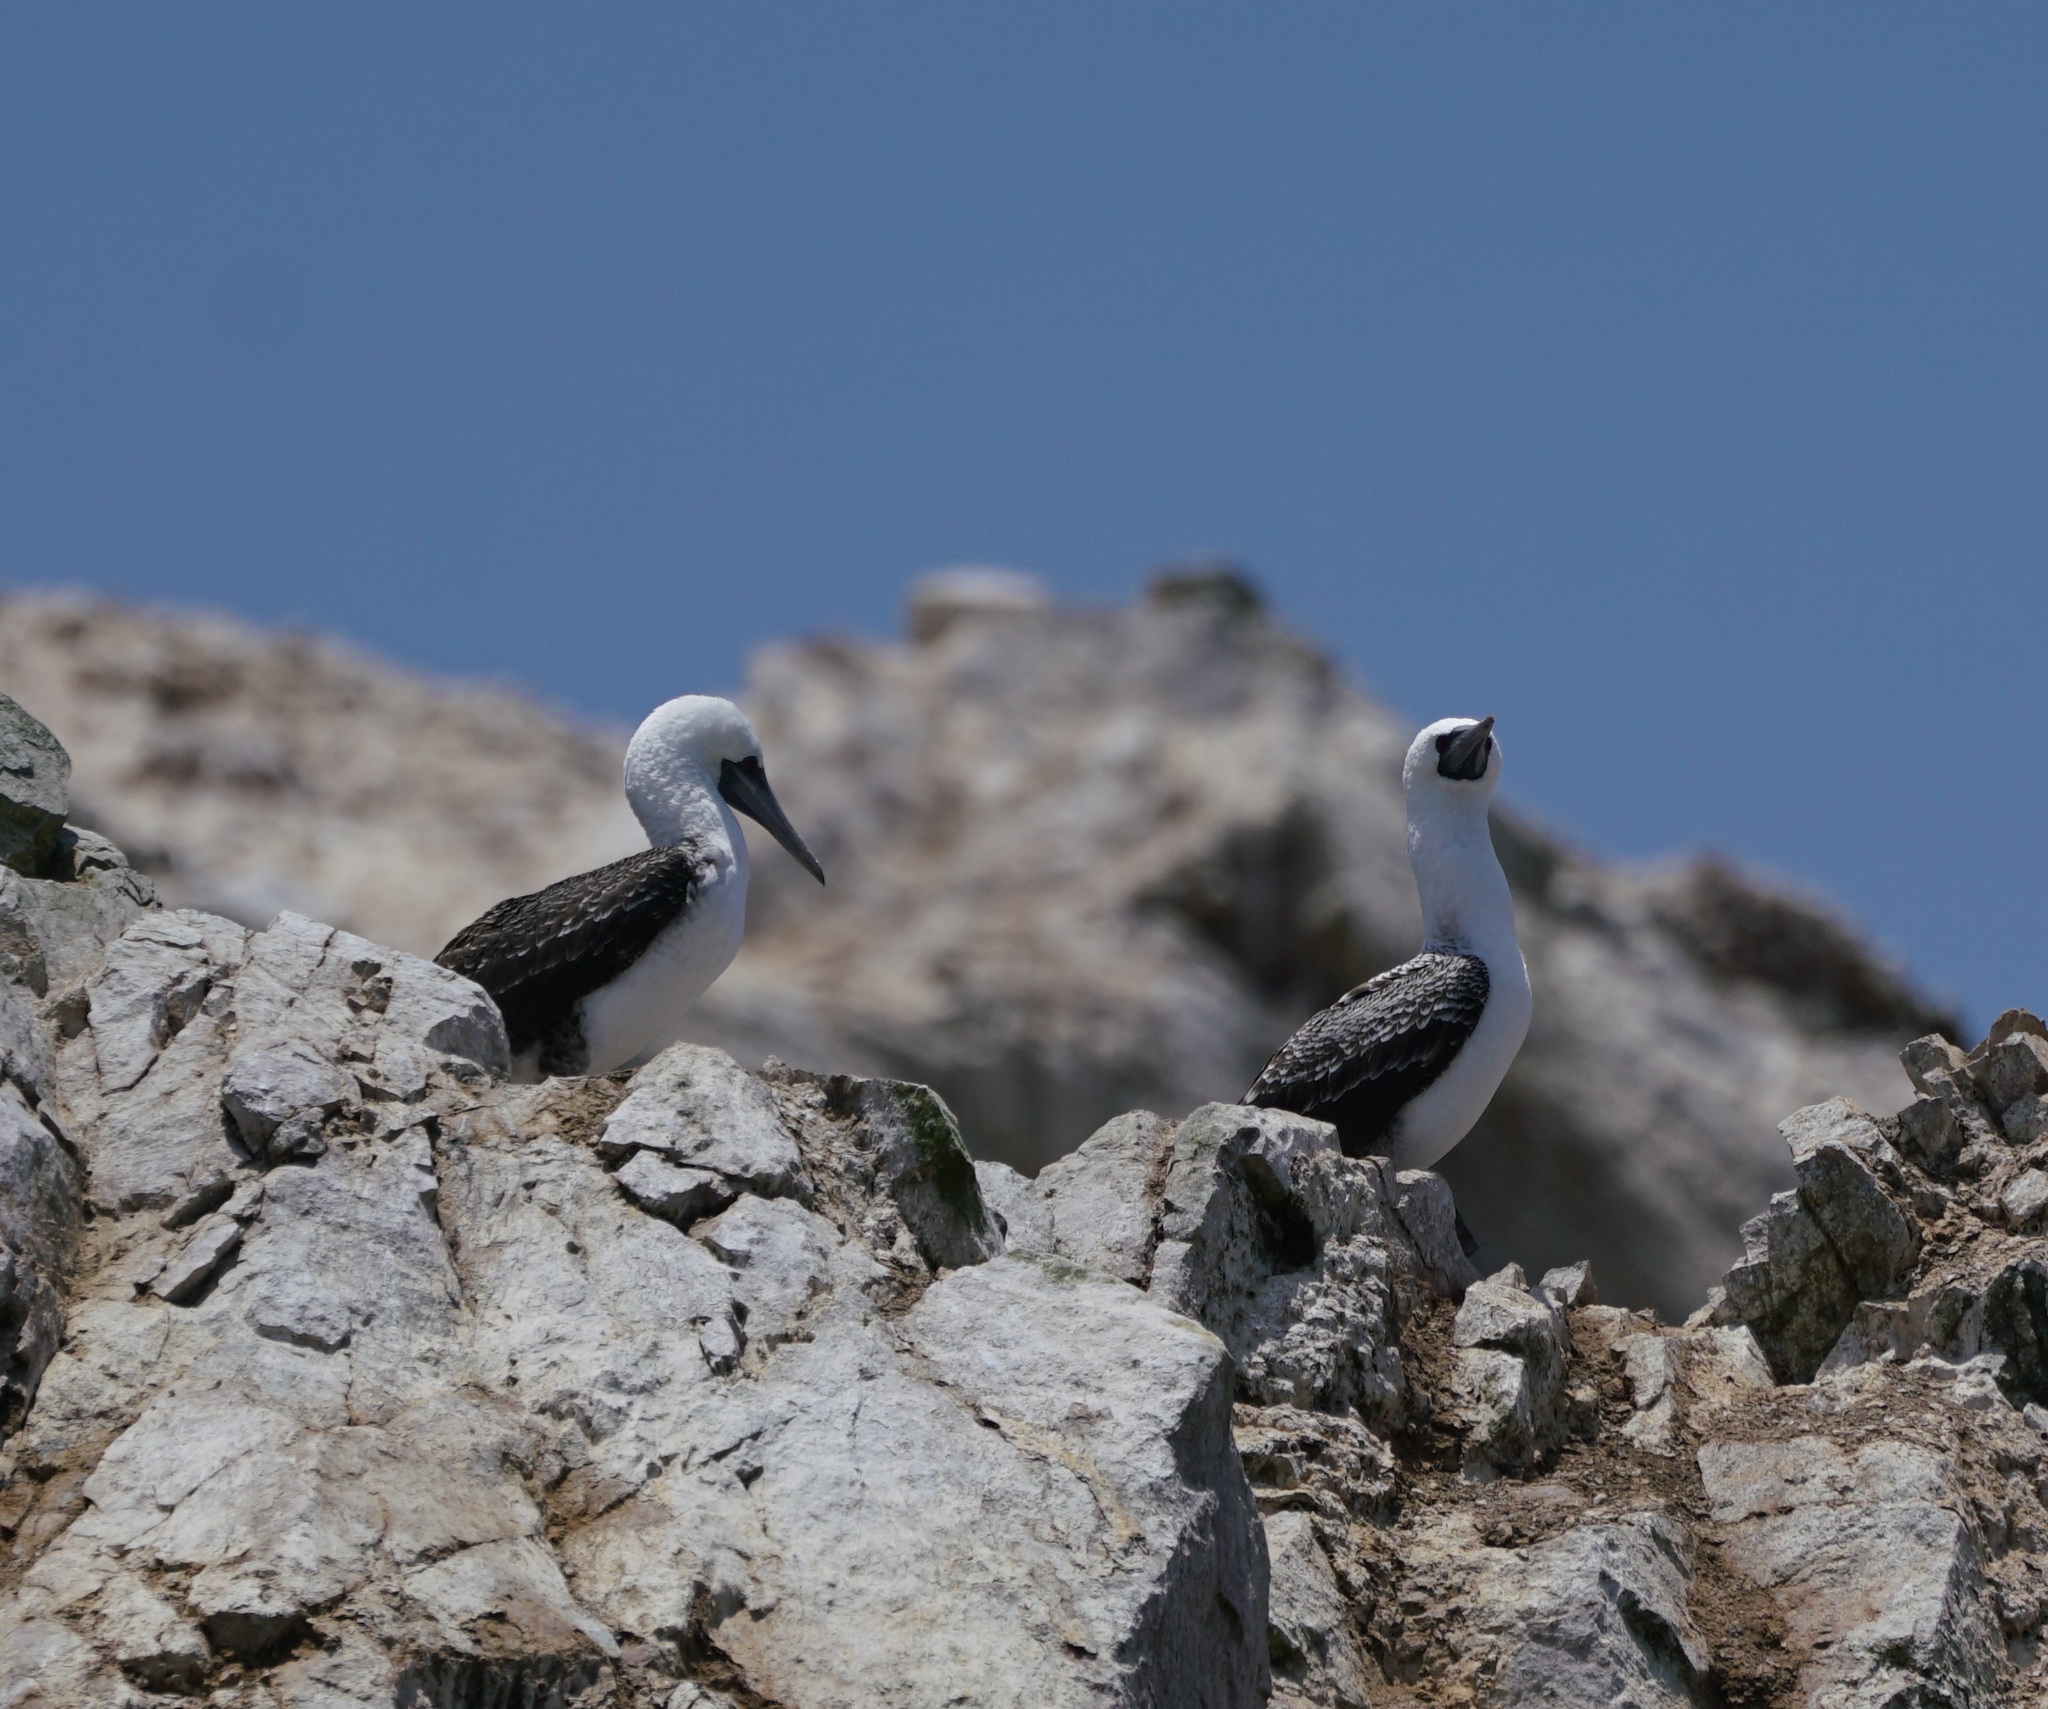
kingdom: Animalia
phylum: Chordata
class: Aves
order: Suliformes
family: Sulidae
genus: Sula
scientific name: Sula variegata
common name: Peruvian booby
